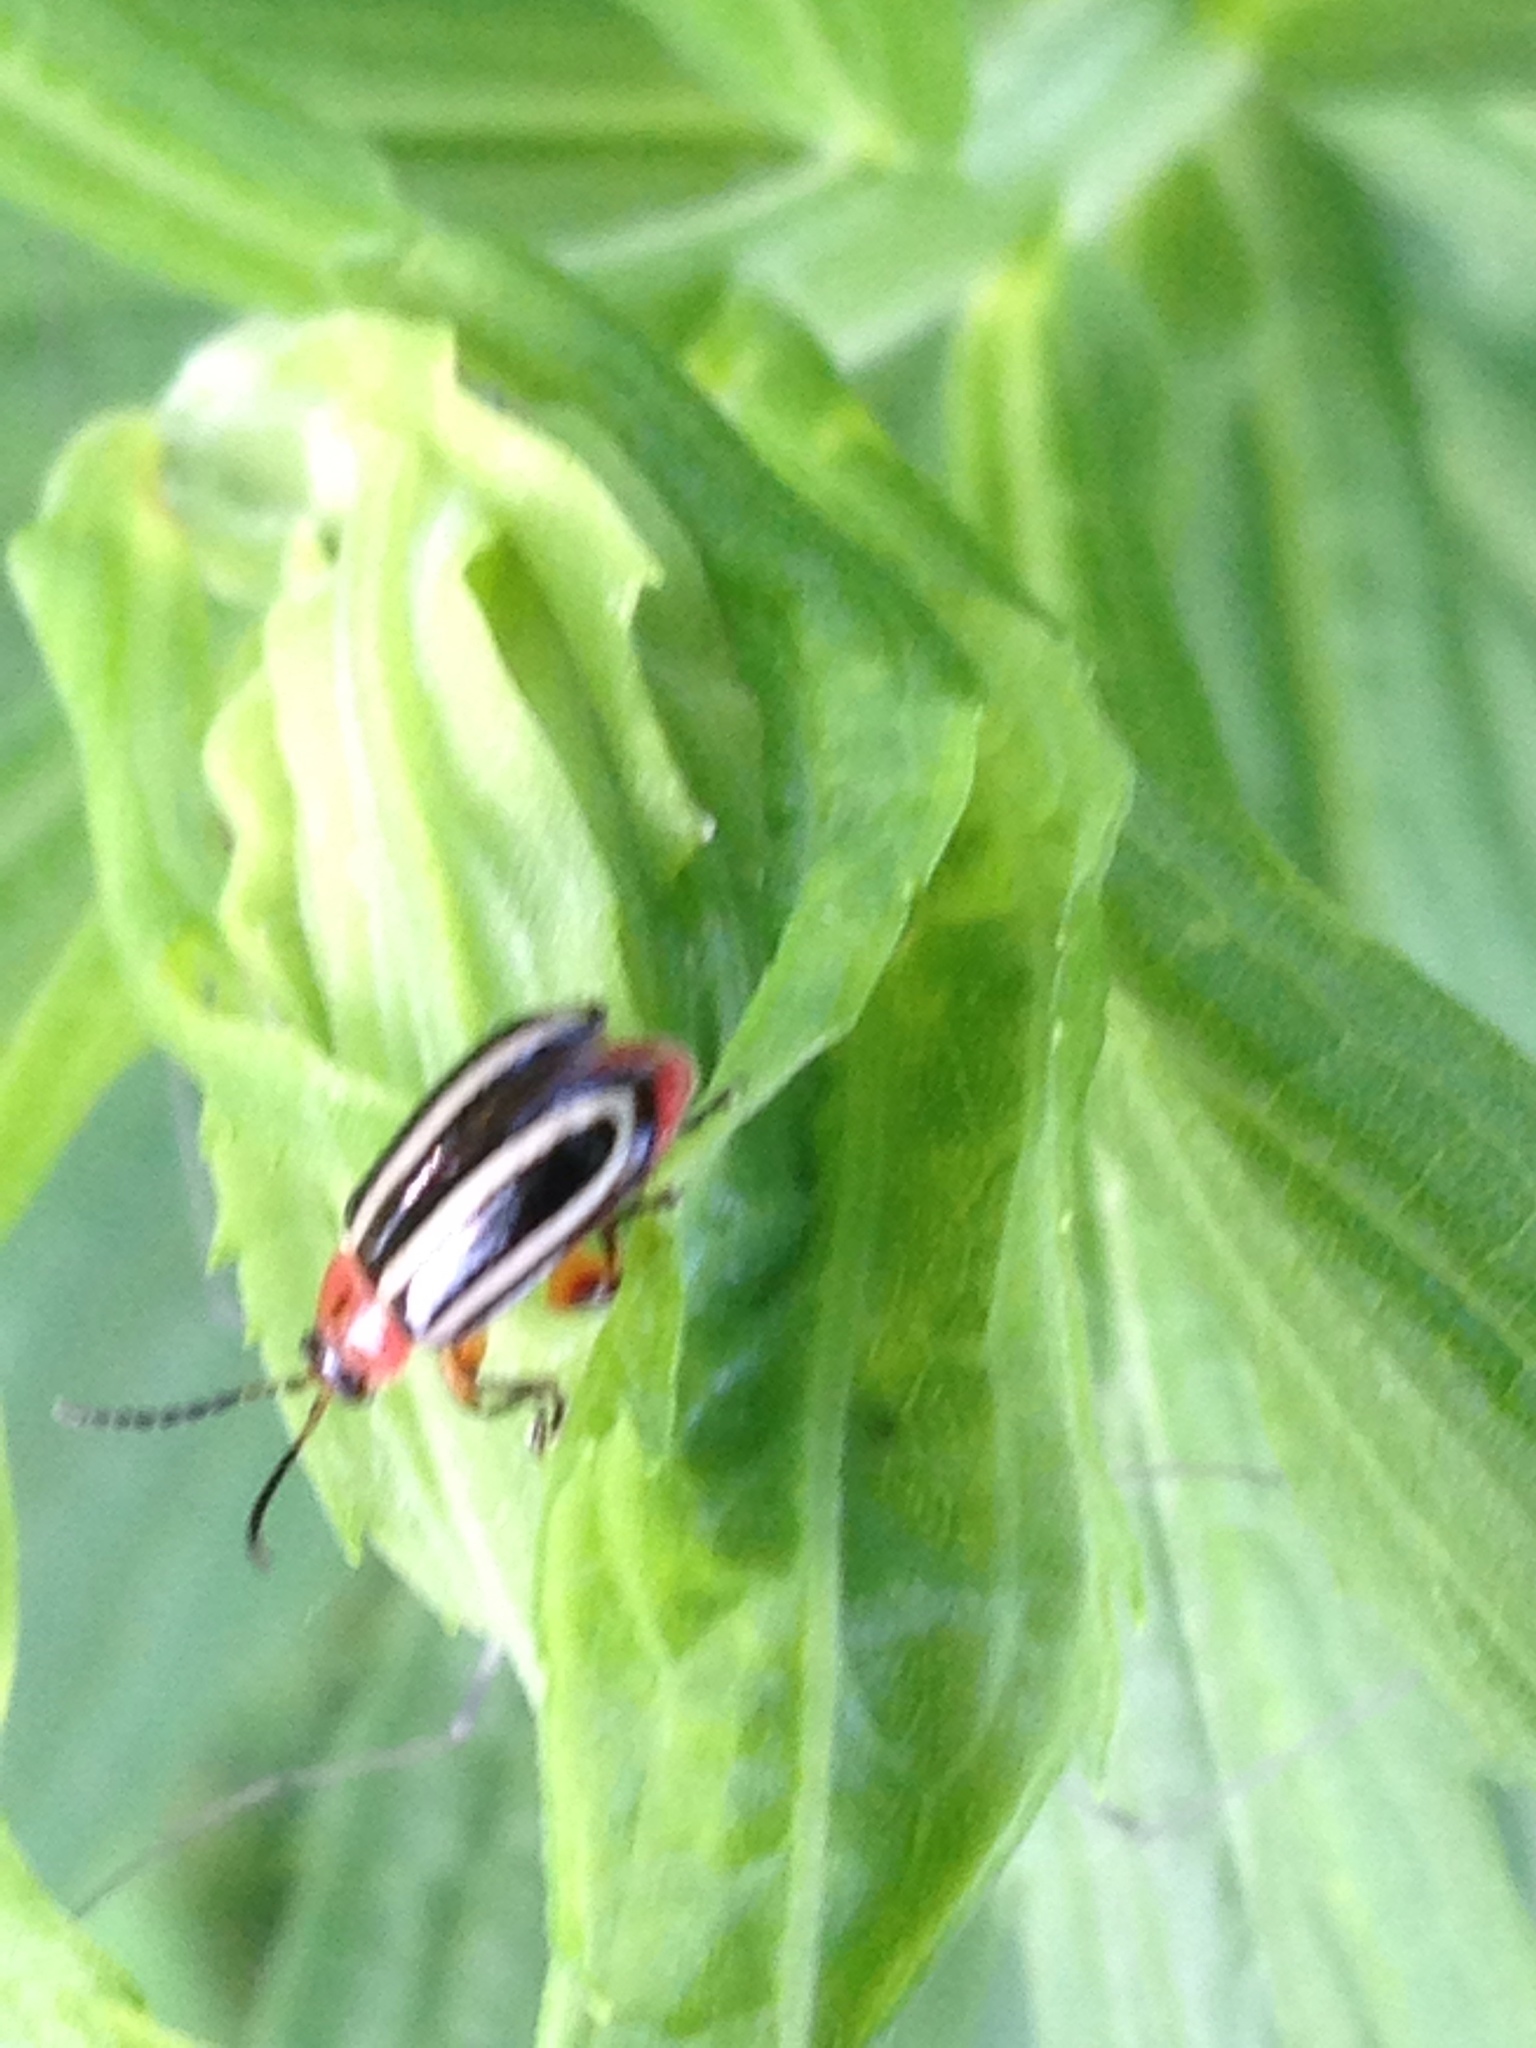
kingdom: Animalia
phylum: Arthropoda
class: Insecta
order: Coleoptera
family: Chrysomelidae
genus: Disonycha
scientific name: Disonycha glabrata
